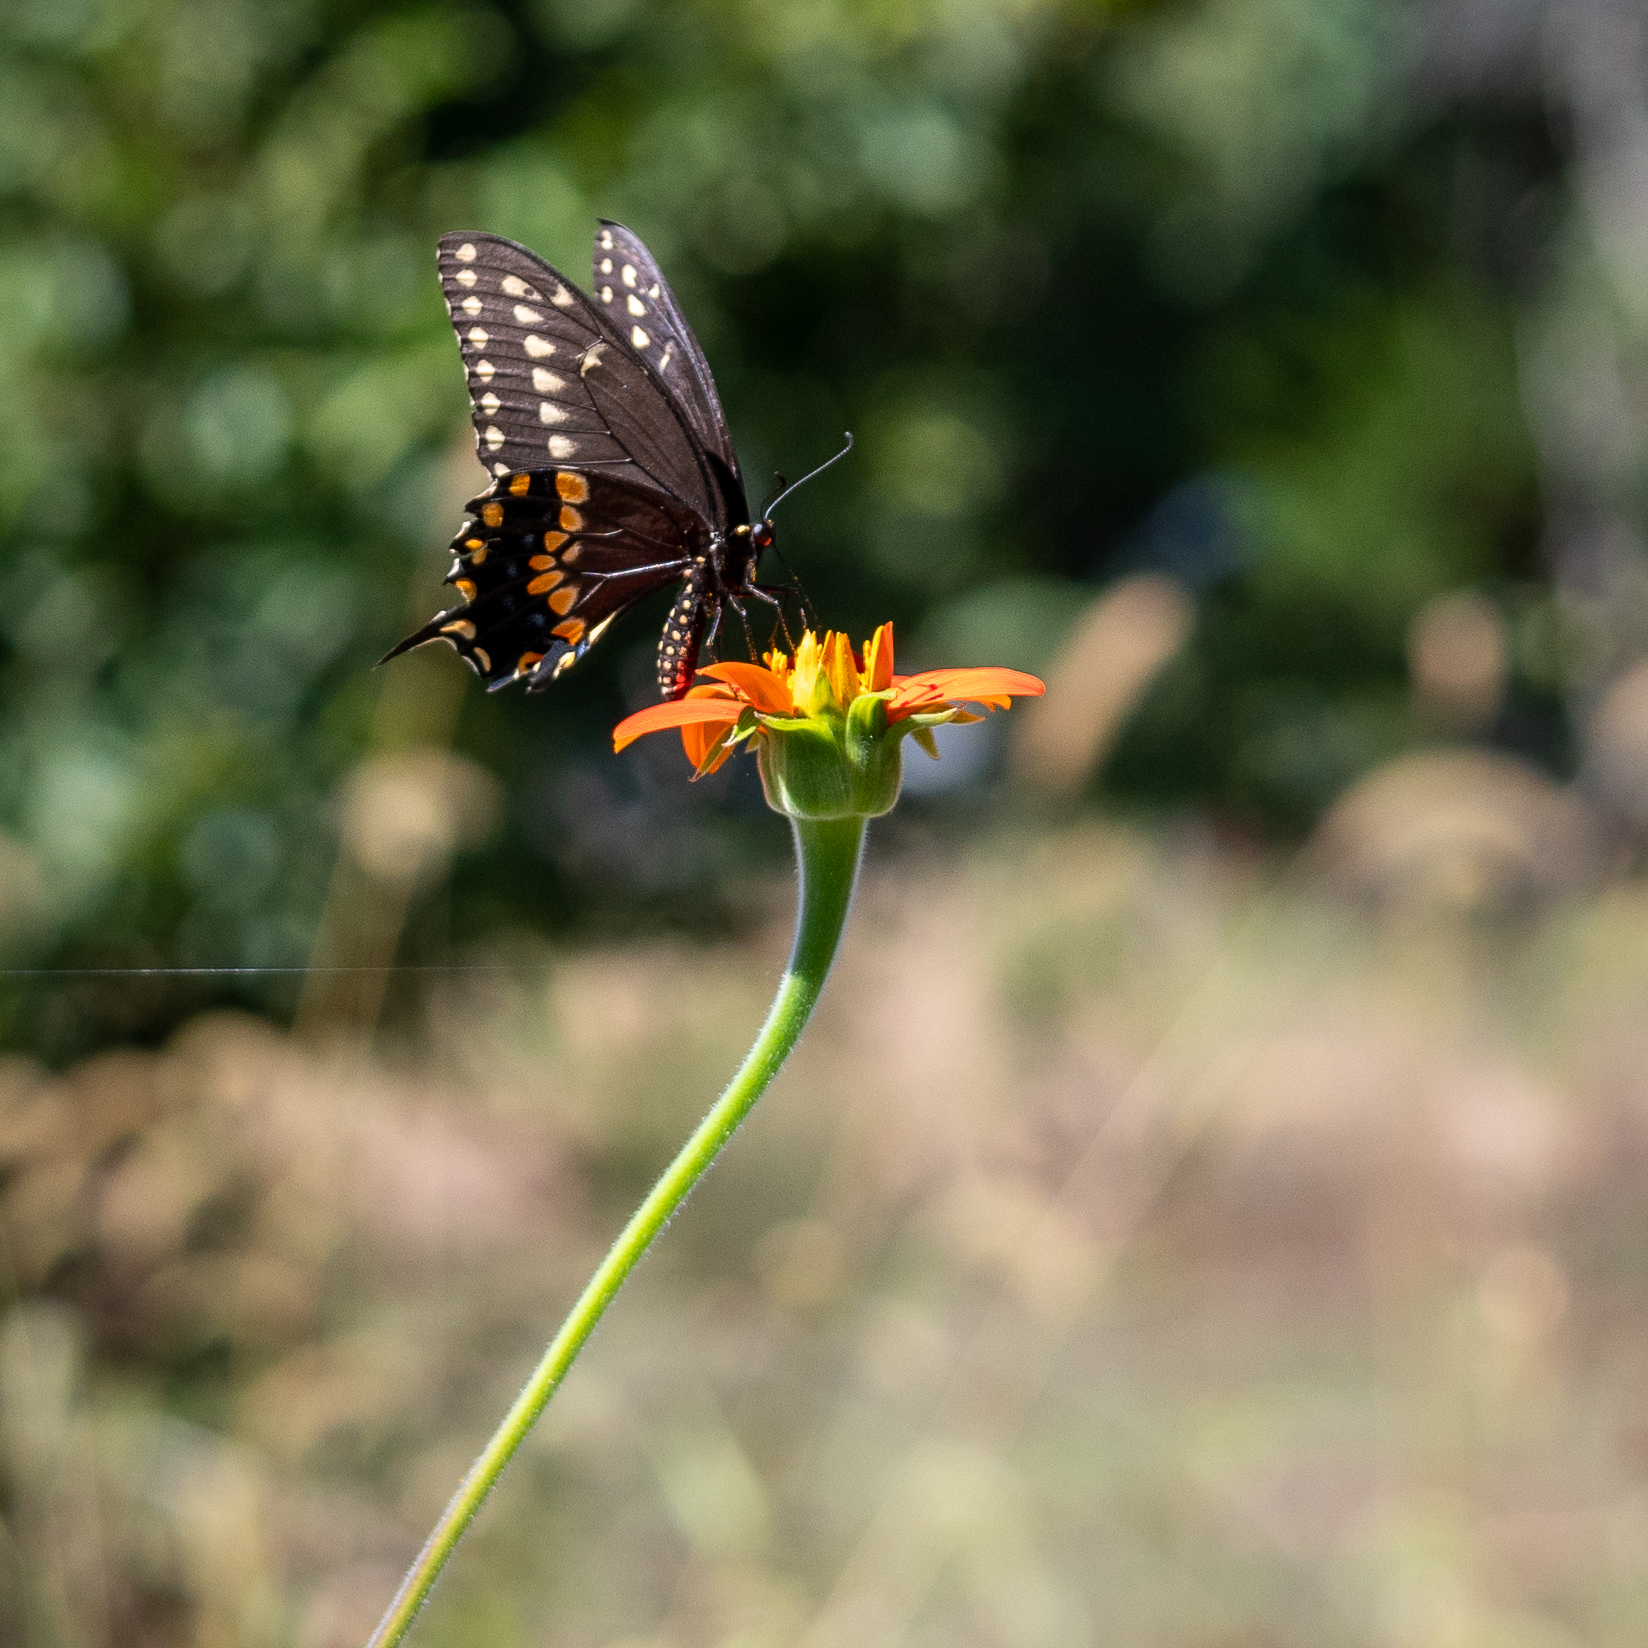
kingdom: Animalia
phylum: Arthropoda
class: Insecta
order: Lepidoptera
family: Papilionidae
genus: Papilio
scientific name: Papilio polyxenes
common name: Black swallowtail
